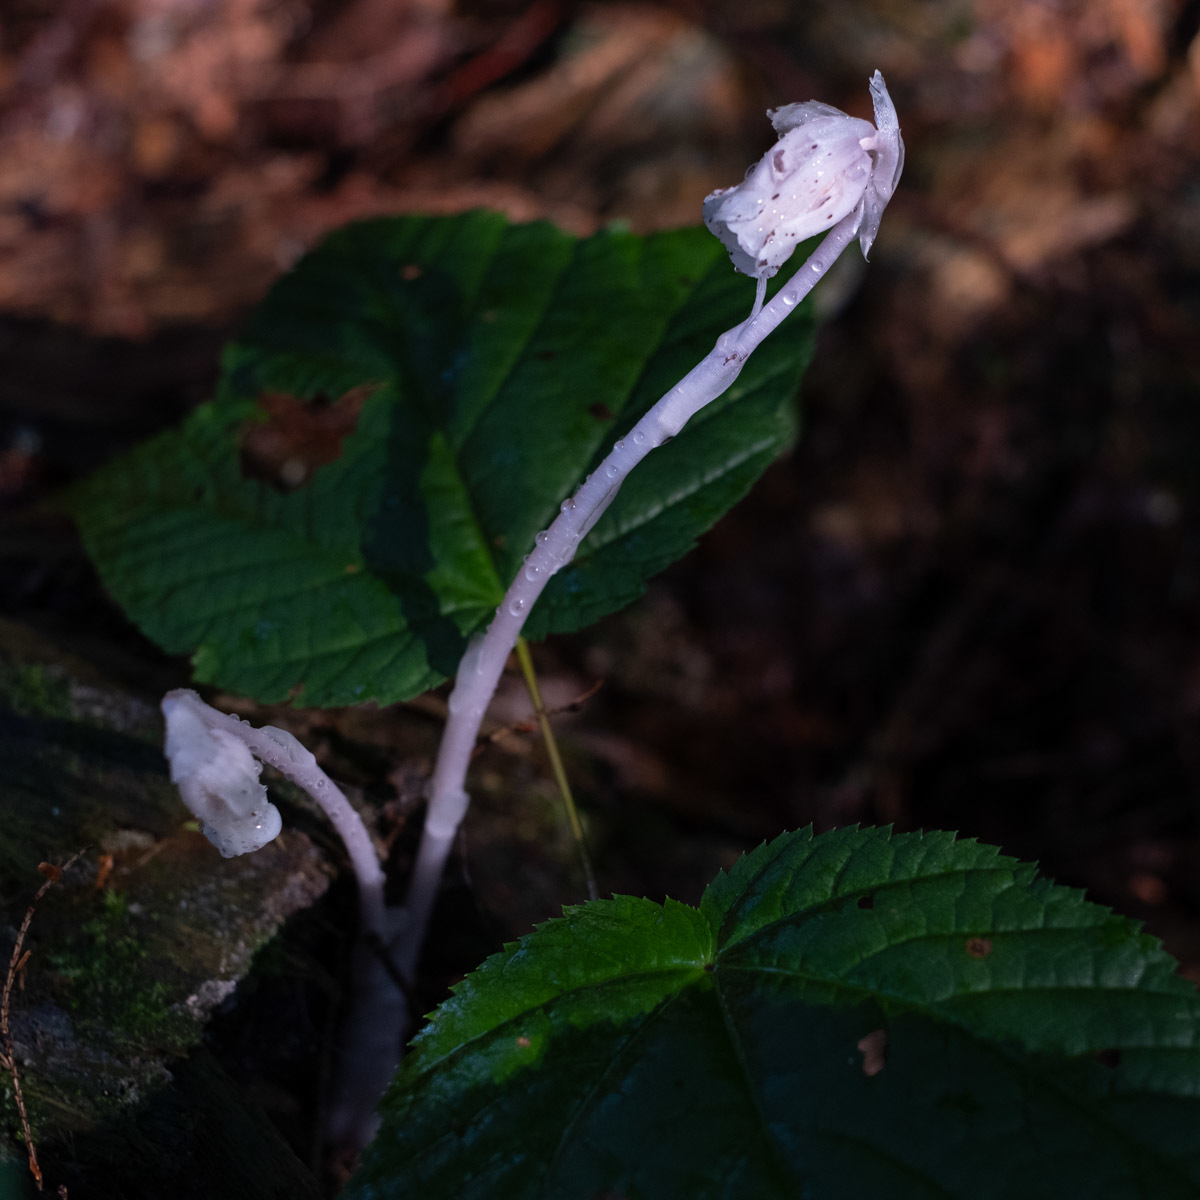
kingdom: Plantae
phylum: Tracheophyta
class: Magnoliopsida
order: Ericales
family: Ericaceae
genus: Monotropa
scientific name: Monotropa uniflora
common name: Convulsion root
